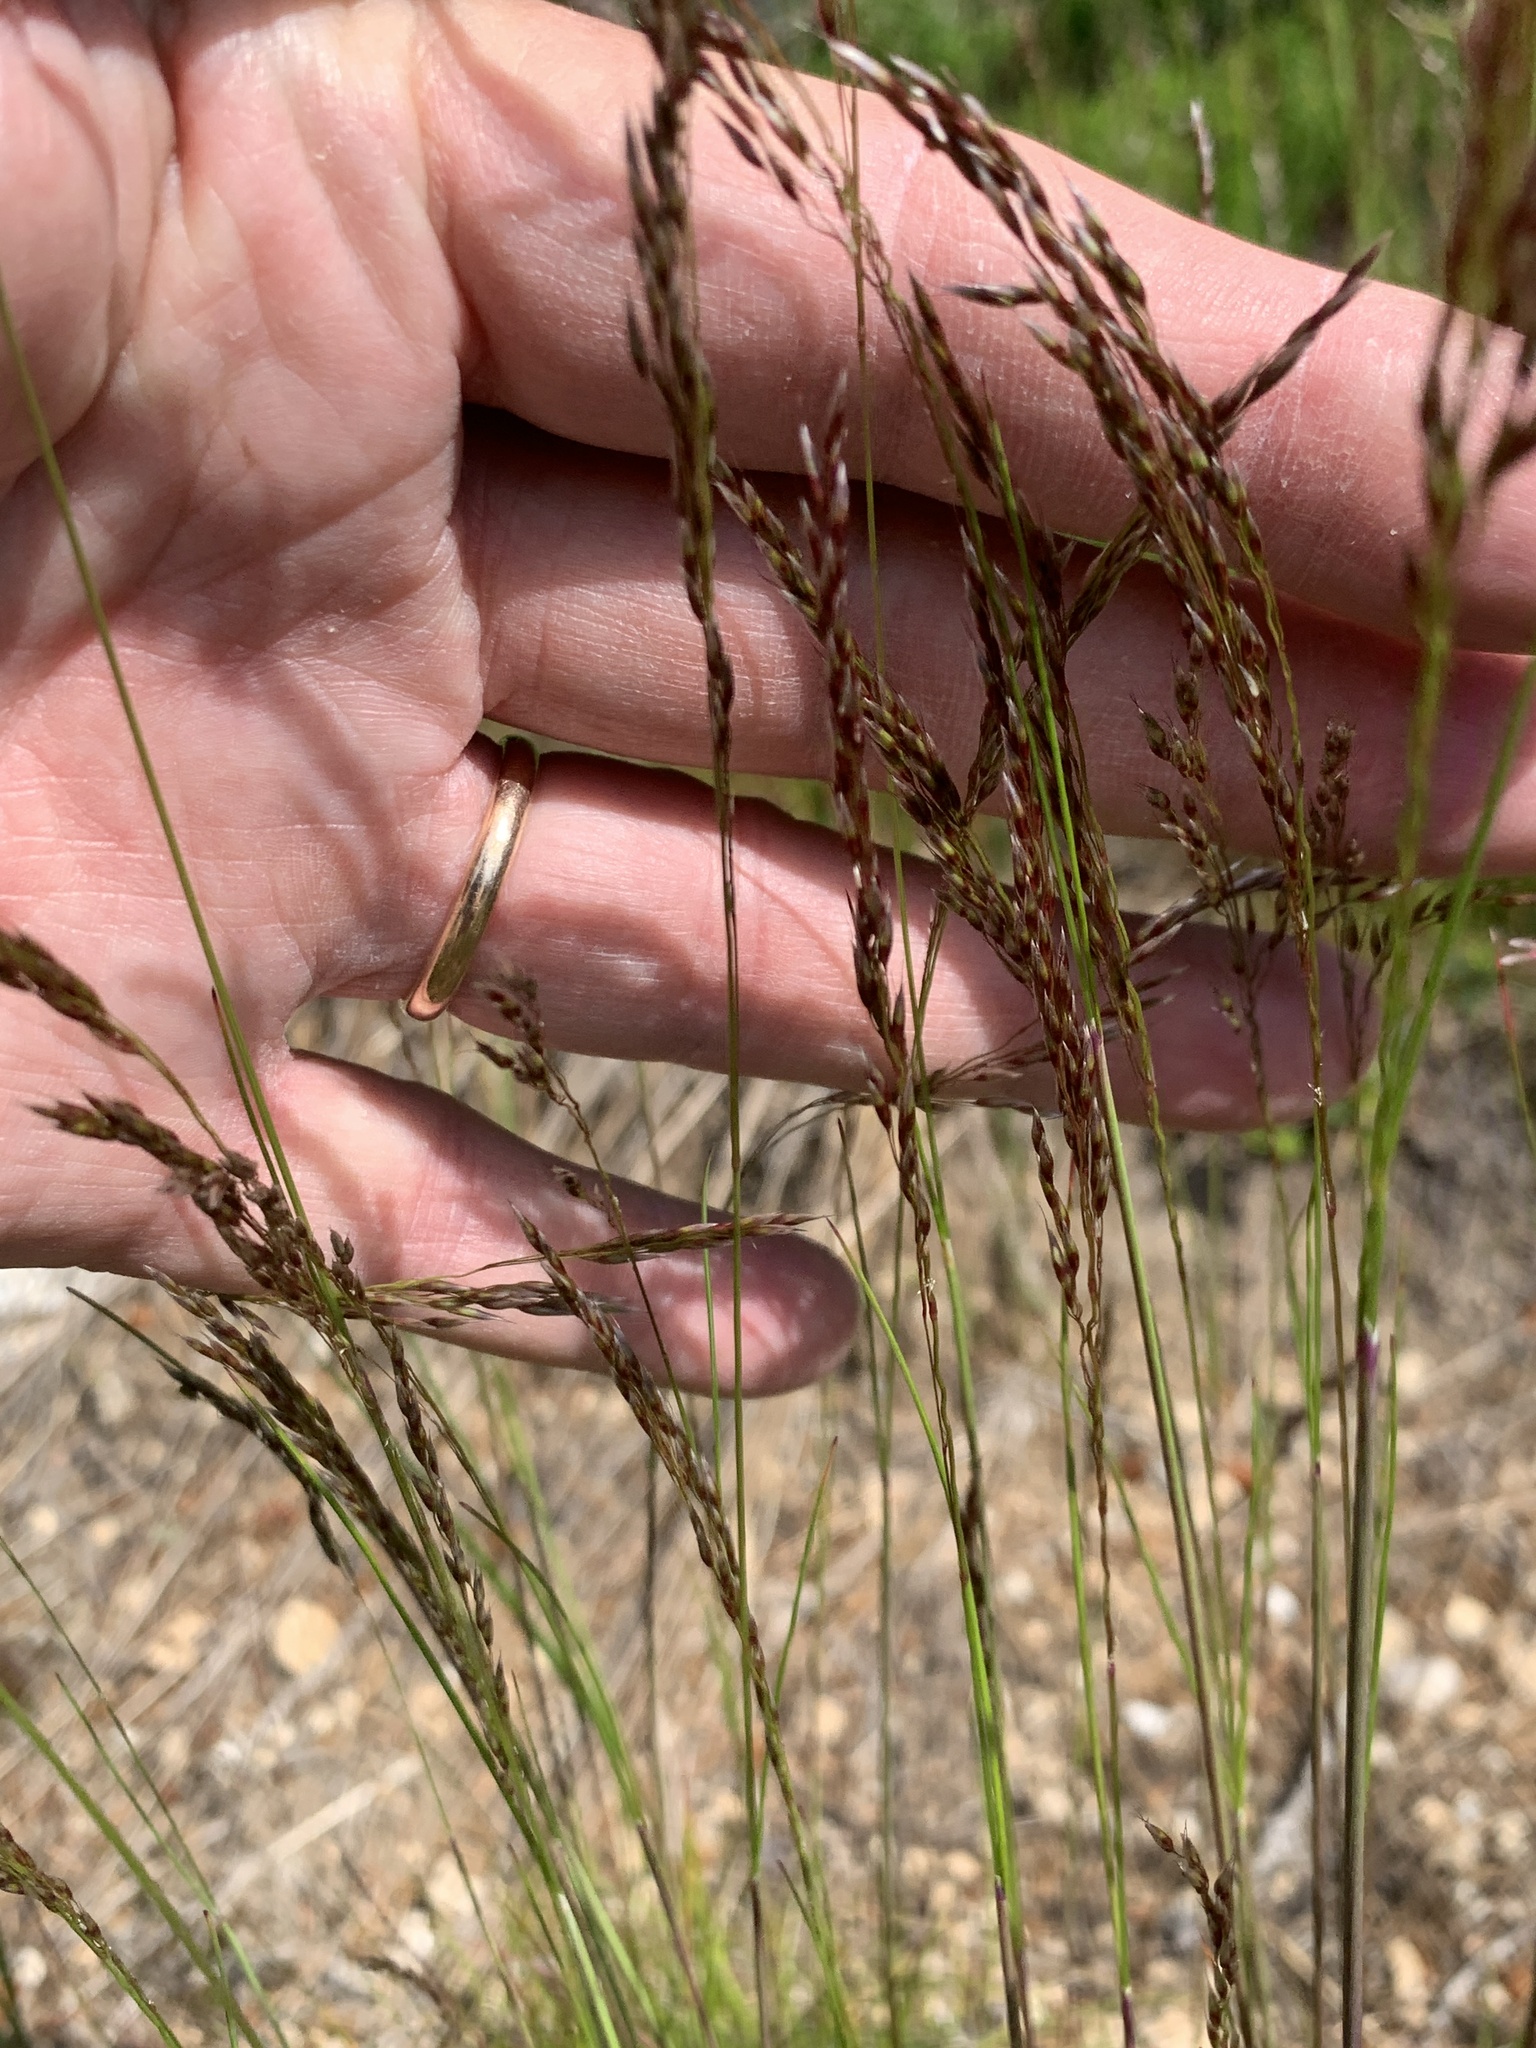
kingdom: Plantae
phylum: Tracheophyta
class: Liliopsida
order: Poales
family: Poaceae
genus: Avenella
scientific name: Avenella flexuosa
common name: Wavy hairgrass
